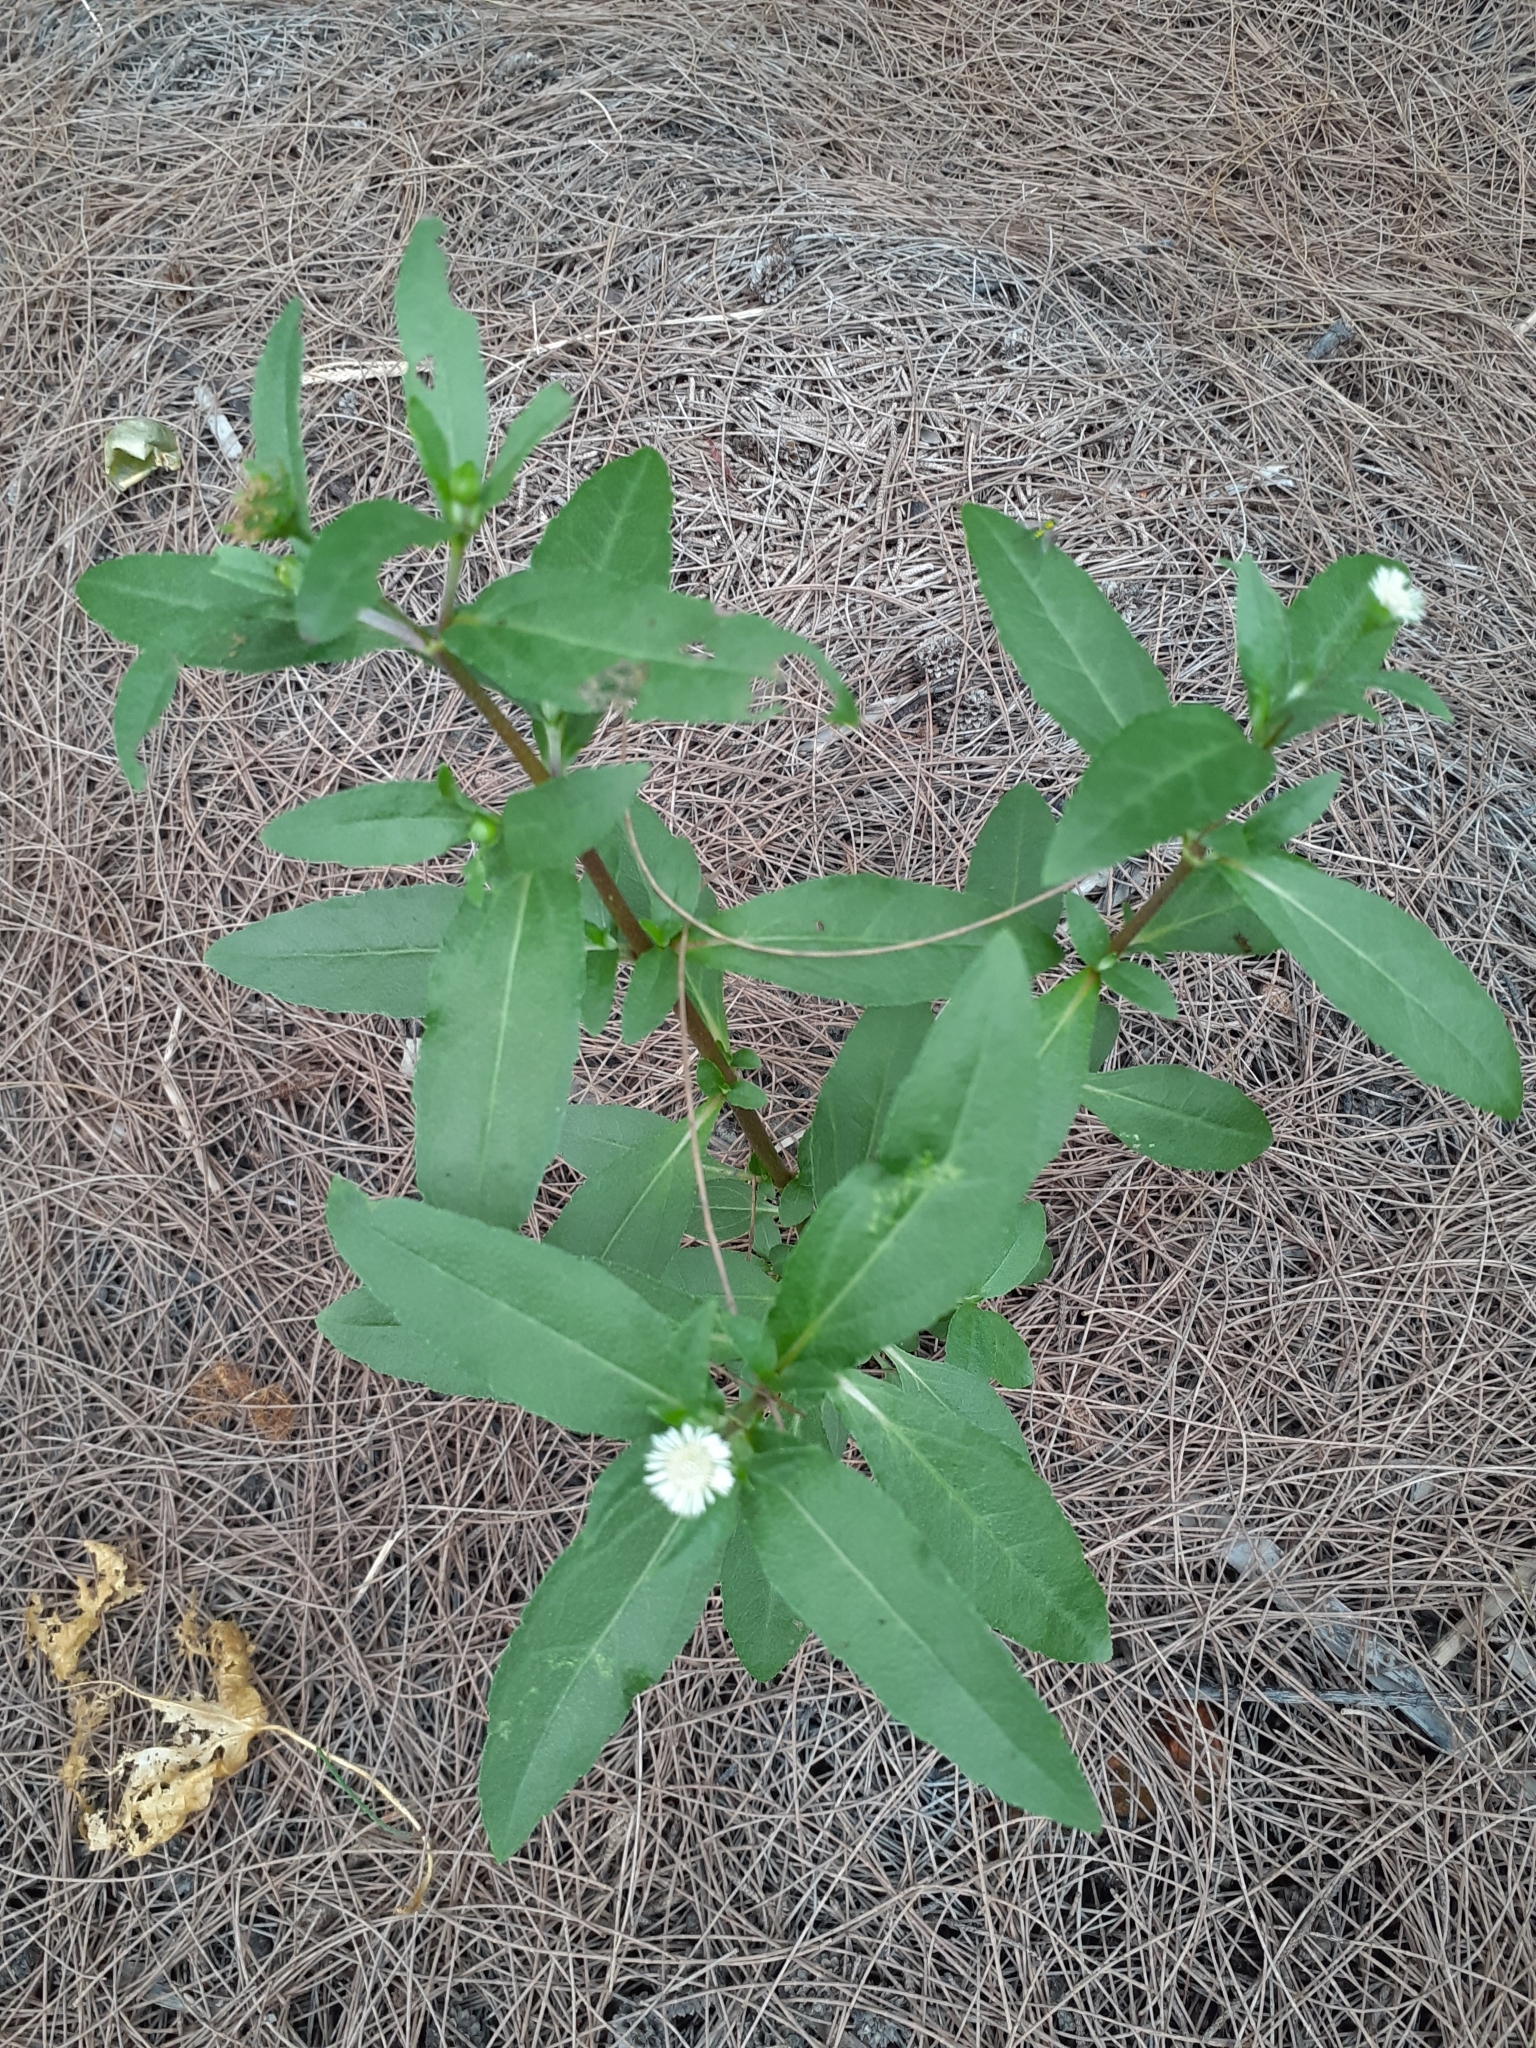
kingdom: Plantae
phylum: Tracheophyta
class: Magnoliopsida
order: Asterales
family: Asteraceae
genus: Eclipta
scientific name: Eclipta prostrata
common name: False daisy
